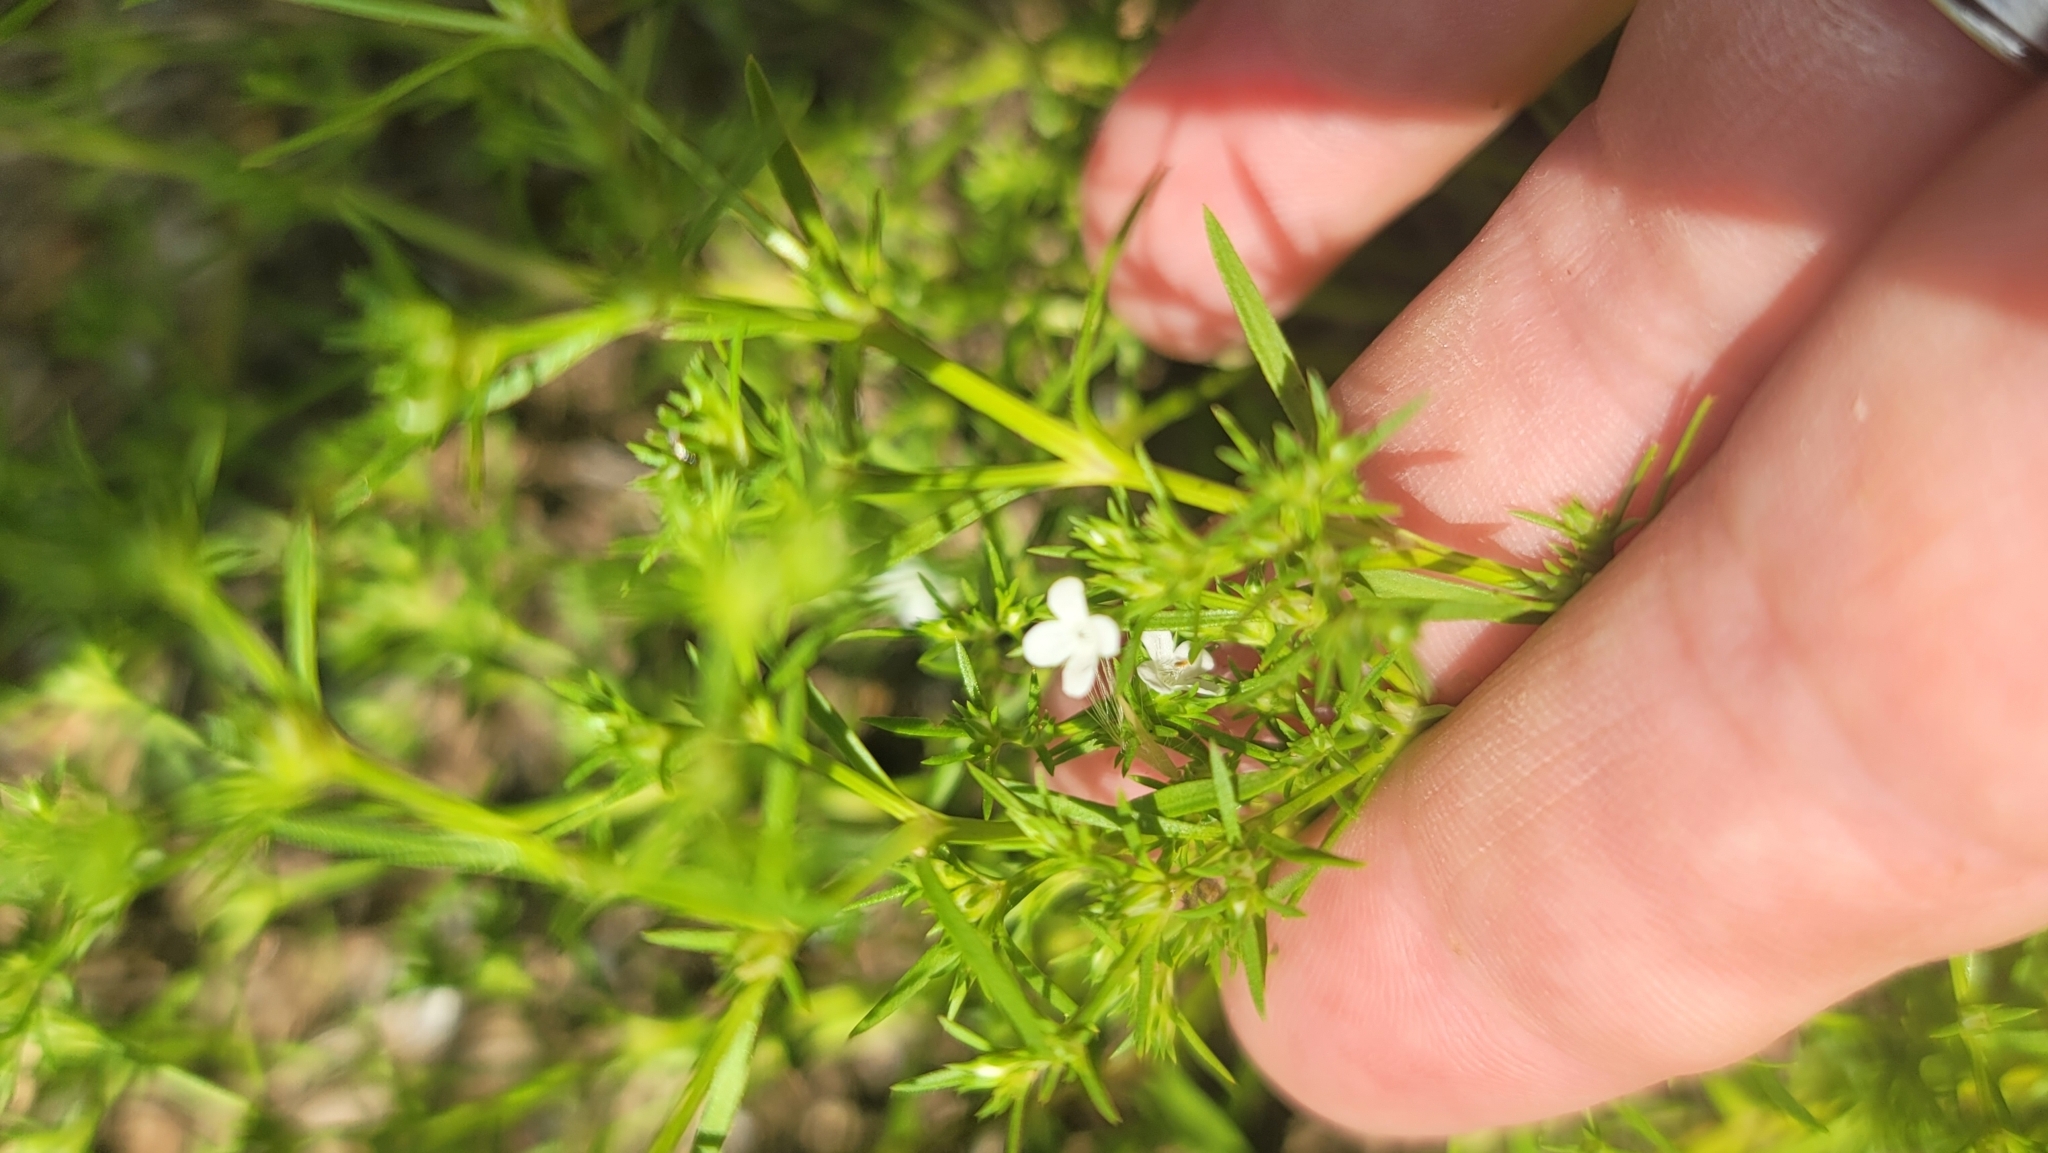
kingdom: Plantae
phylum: Tracheophyta
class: Magnoliopsida
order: Lamiales
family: Tetrachondraceae
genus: Polypremum
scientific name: Polypremum procumbens
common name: Juniper-leaf
